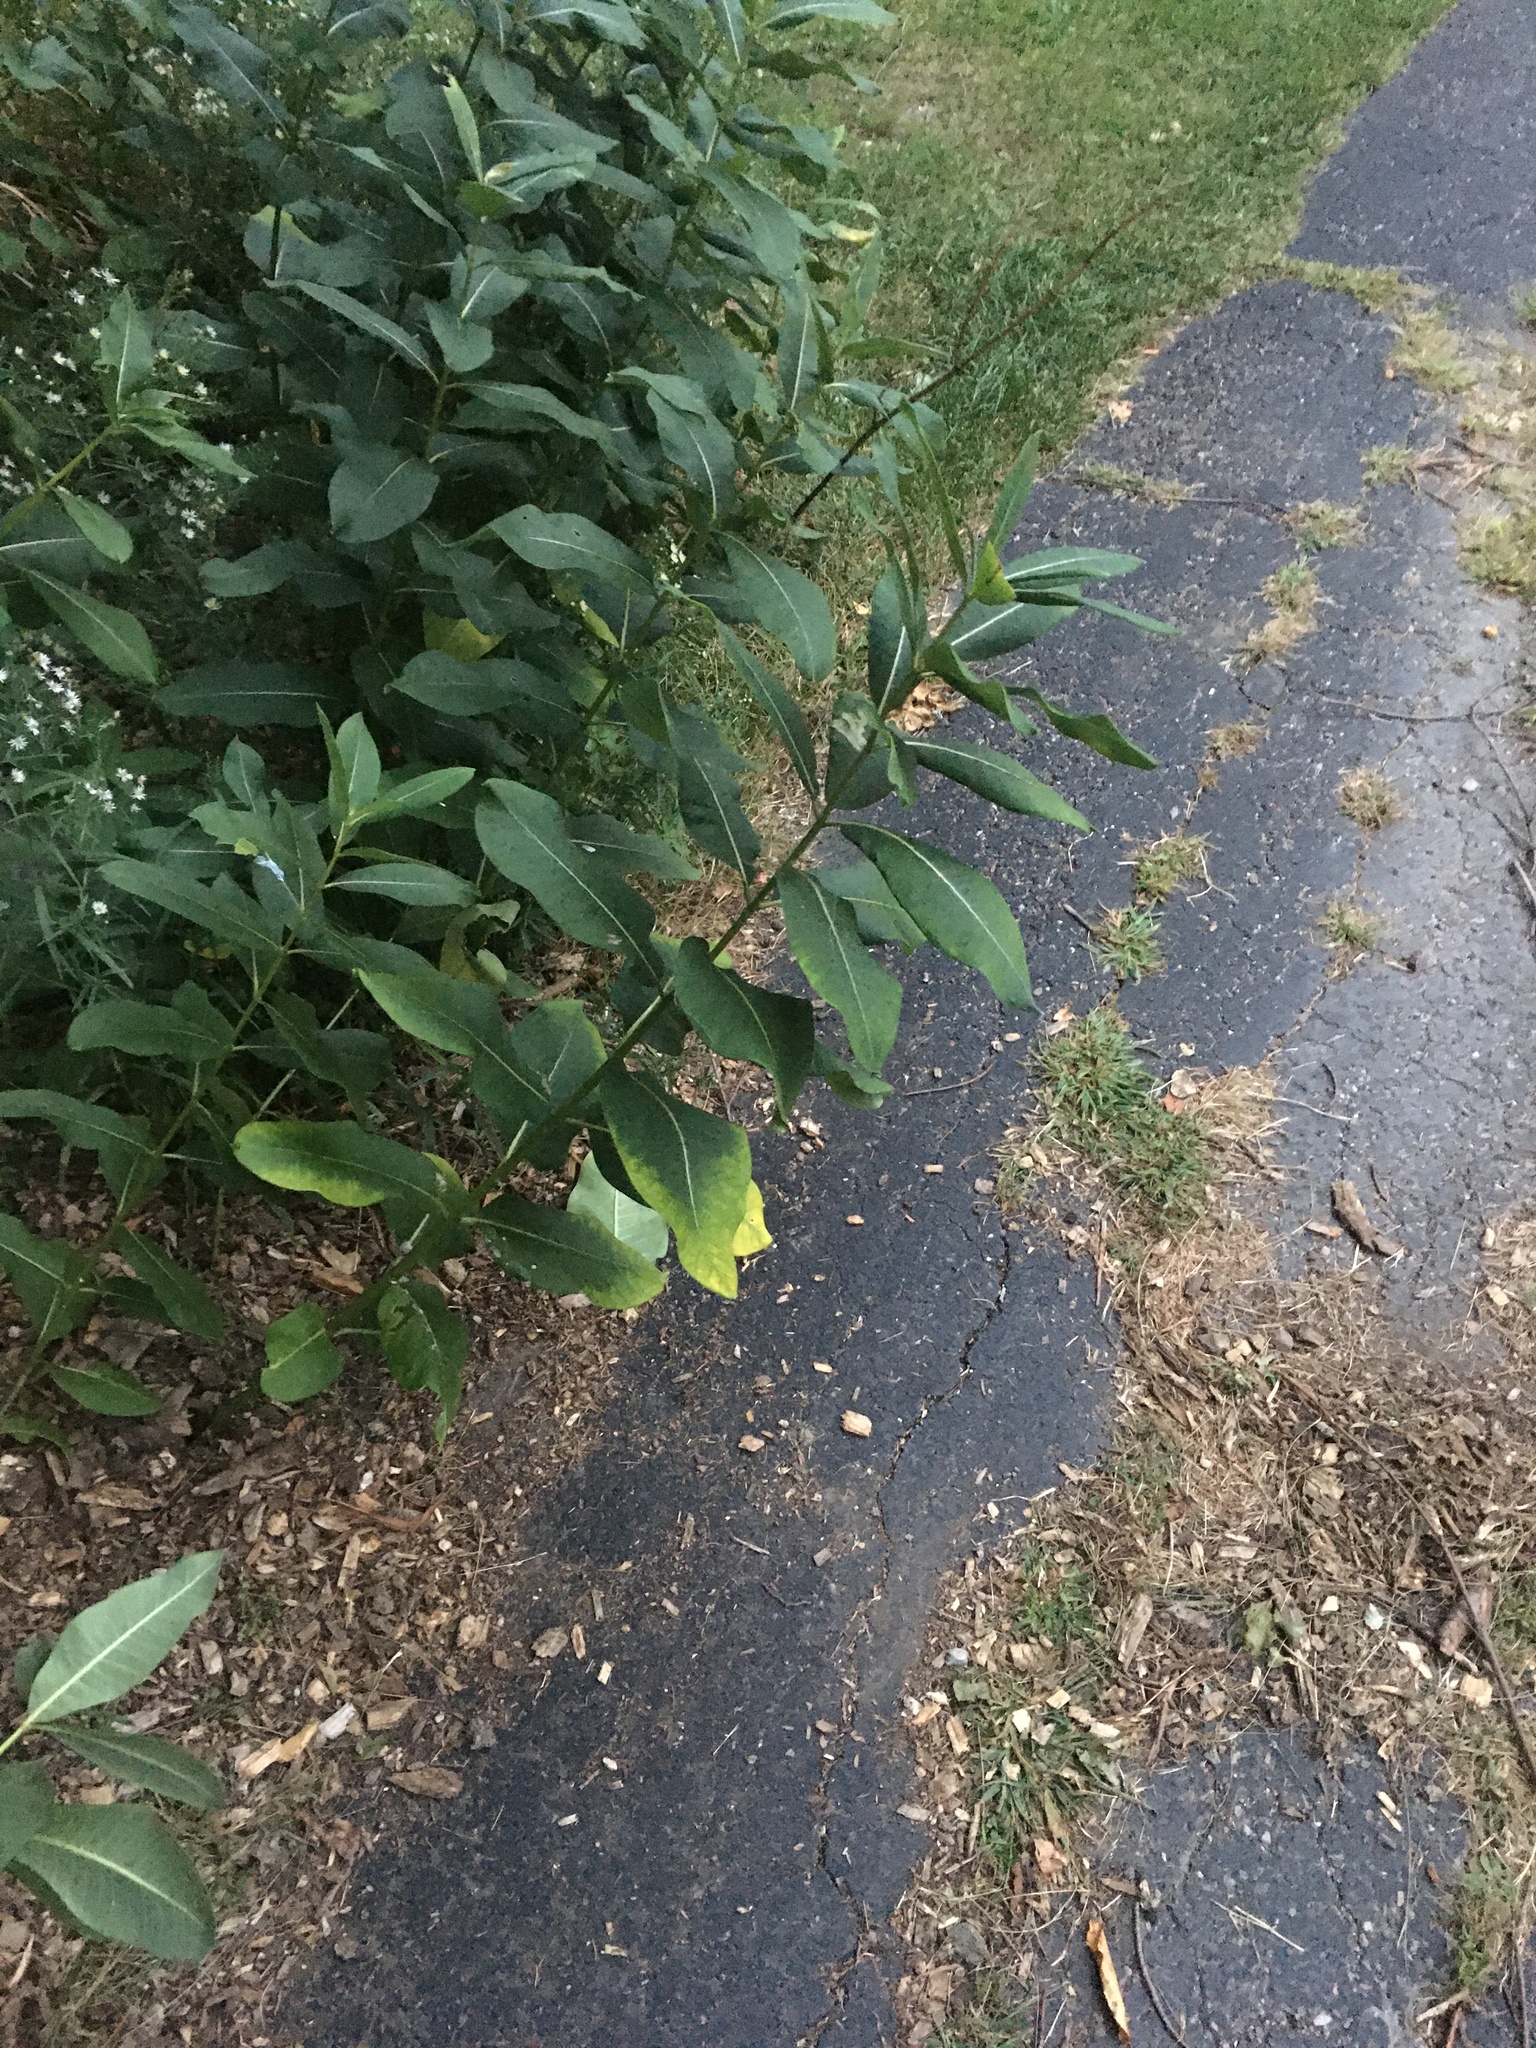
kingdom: Plantae
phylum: Tracheophyta
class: Magnoliopsida
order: Gentianales
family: Apocynaceae
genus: Asclepias
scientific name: Asclepias syriaca
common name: Common milkweed
